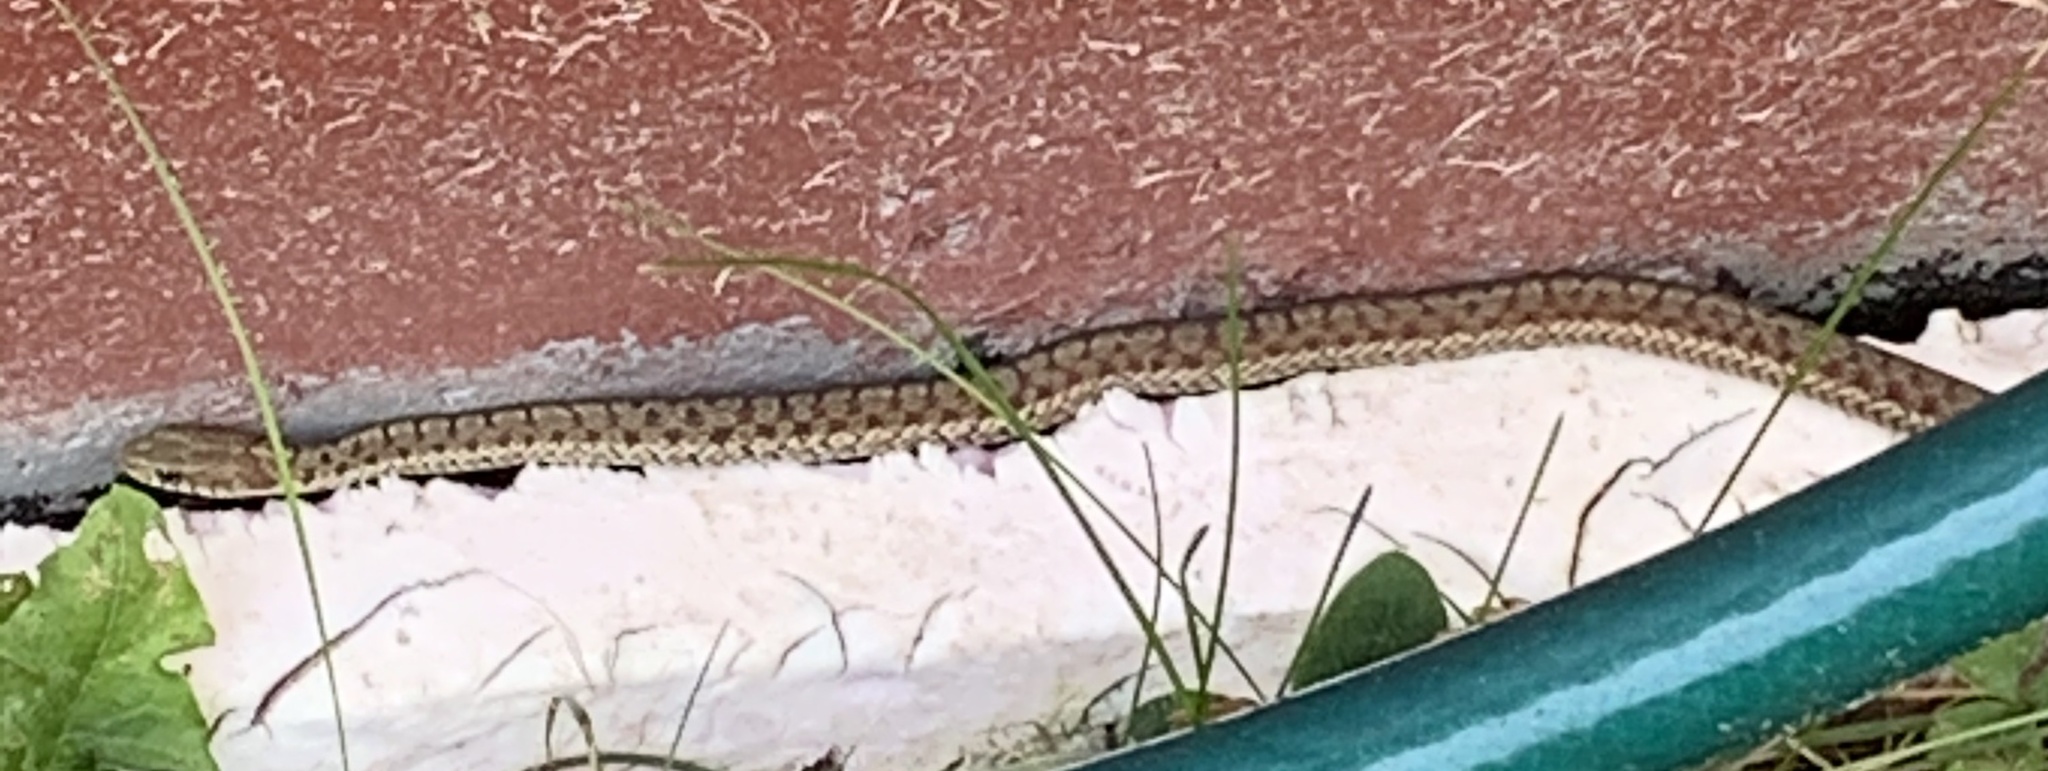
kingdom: Animalia
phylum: Chordata
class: Squamata
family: Colubridae
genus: Thamnophis
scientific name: Thamnophis sirtalis
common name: Common garter snake
